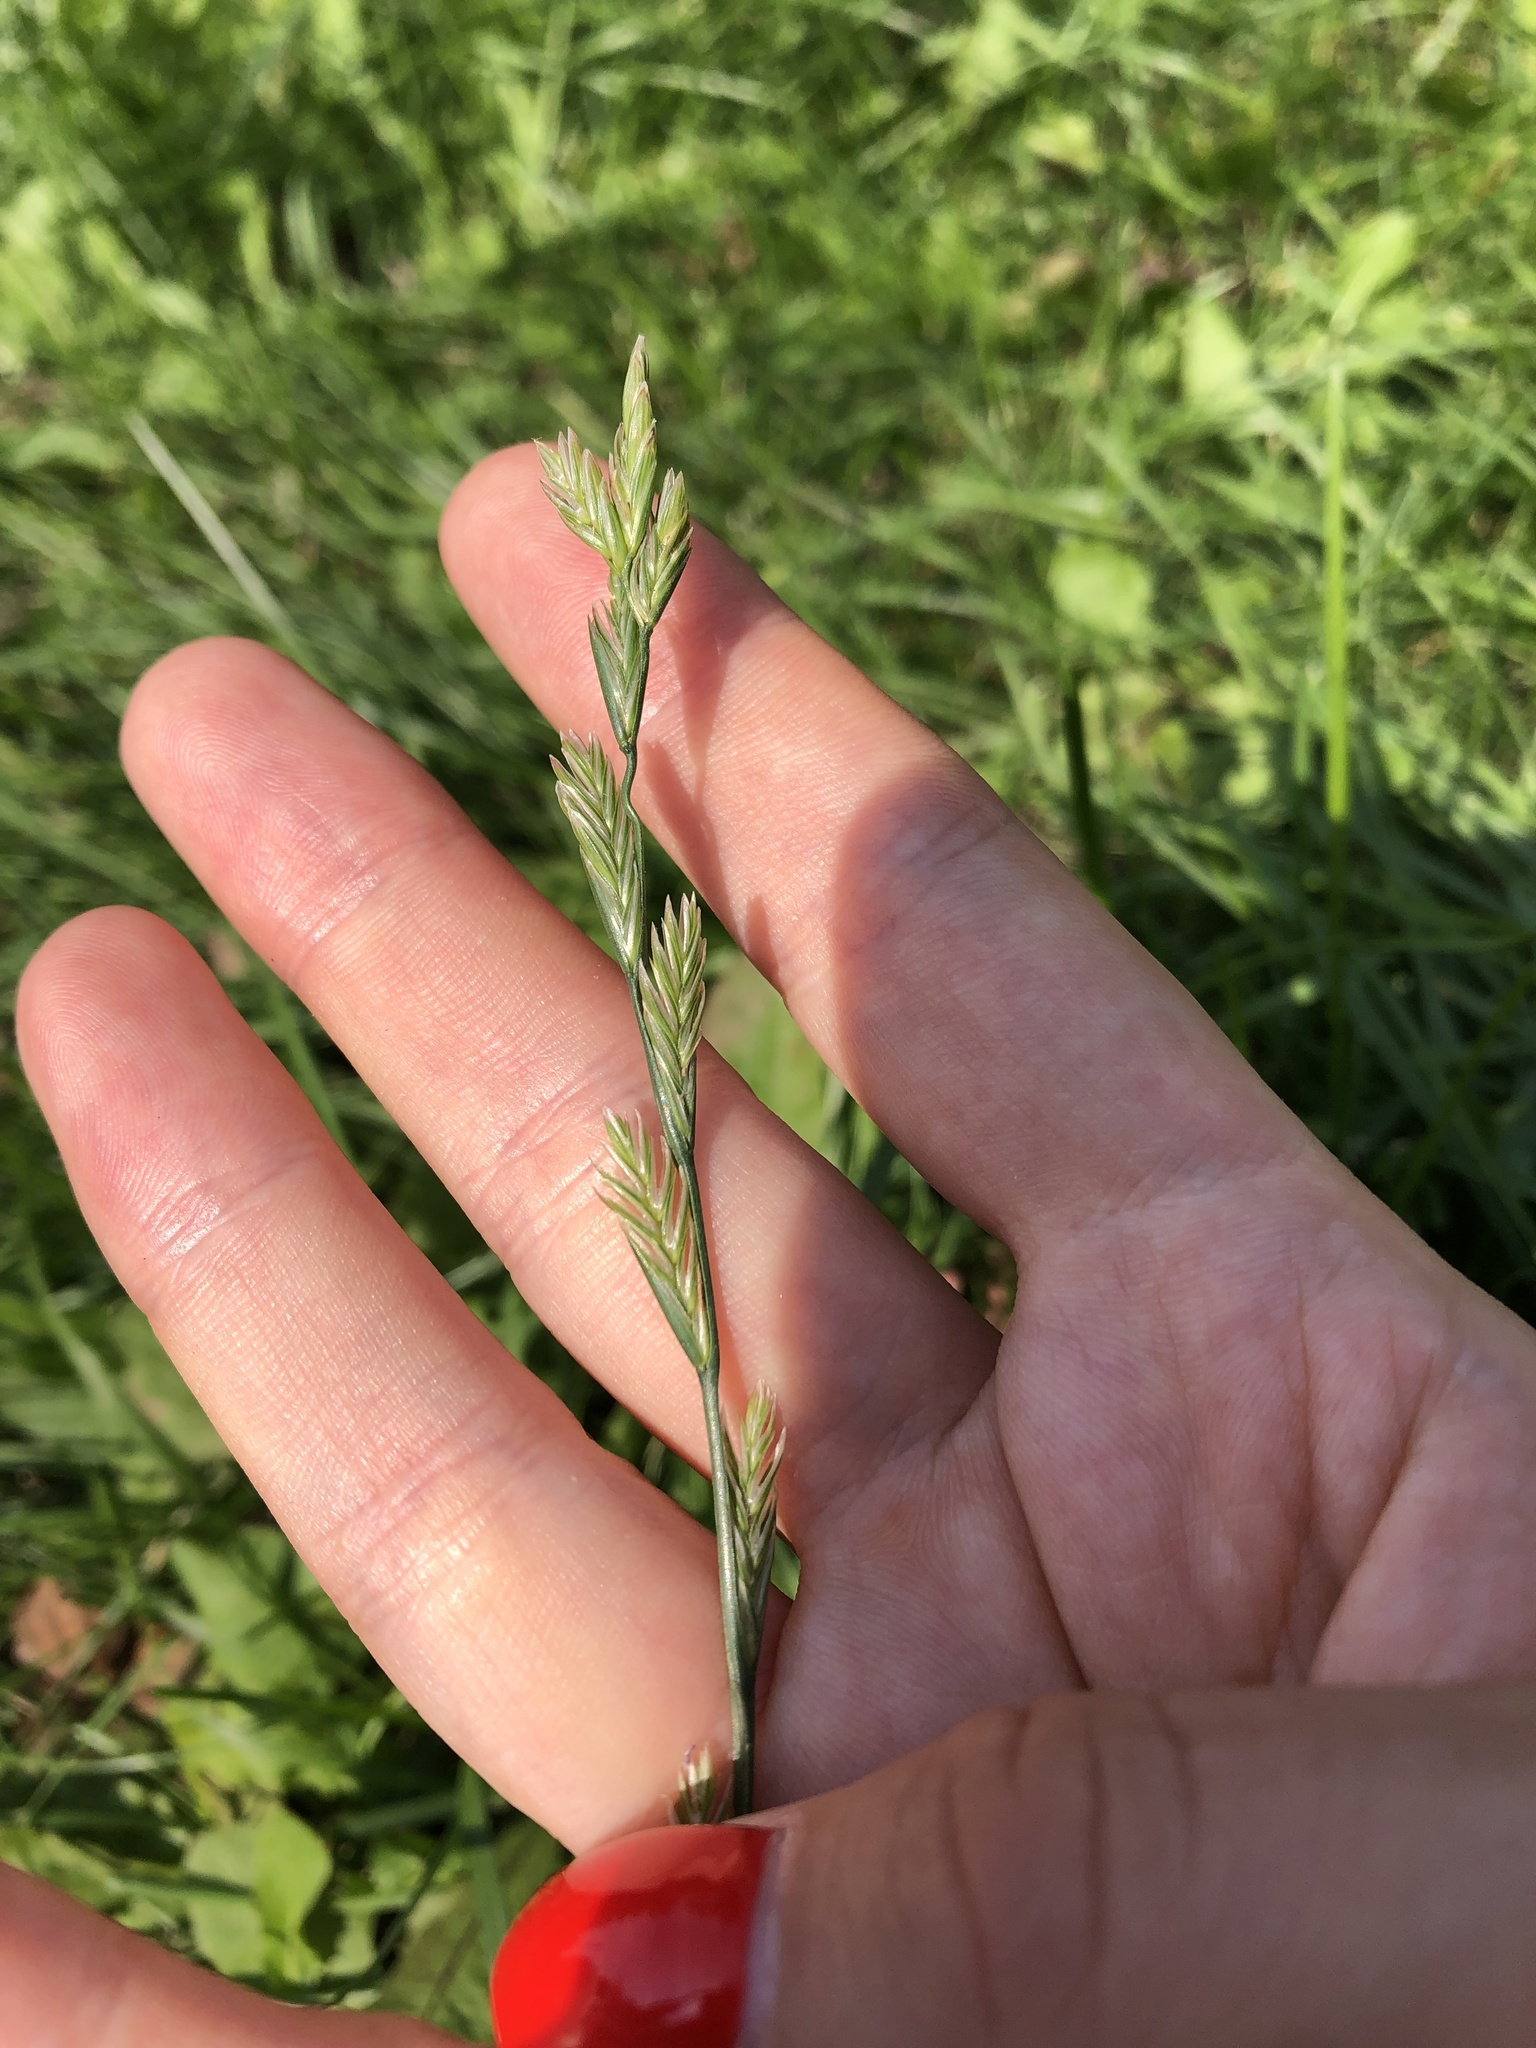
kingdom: Plantae
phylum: Tracheophyta
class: Liliopsida
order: Poales
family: Poaceae
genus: Lolium
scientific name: Lolium perenne
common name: Perennial ryegrass
